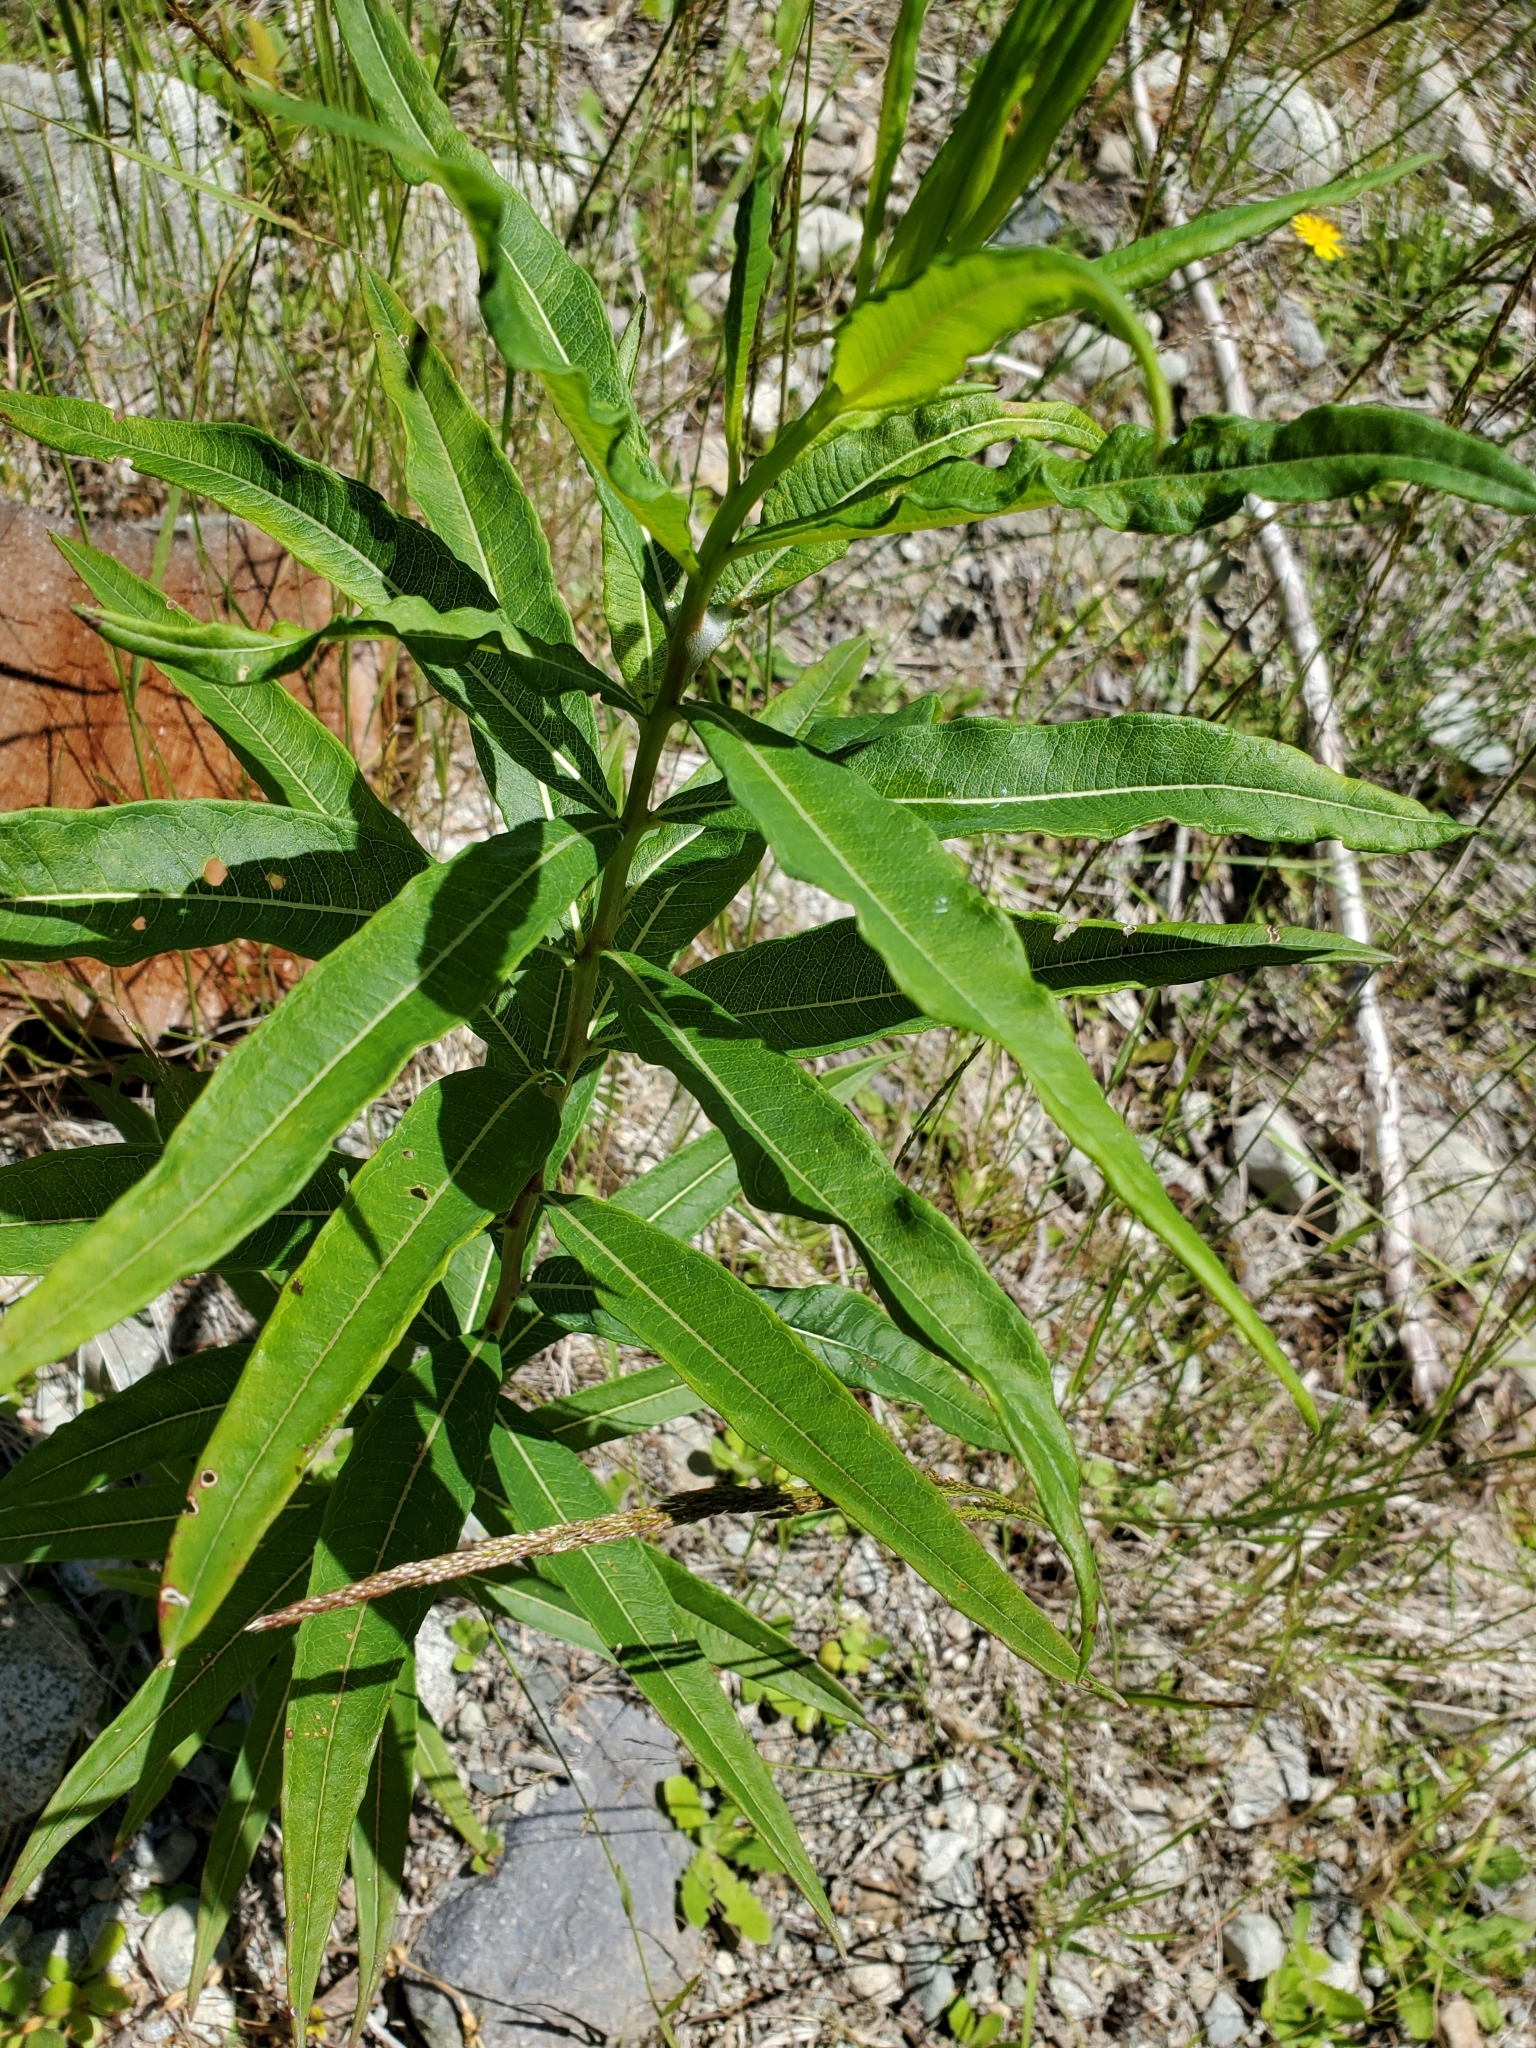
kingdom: Plantae
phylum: Tracheophyta
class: Magnoliopsida
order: Myrtales
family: Onagraceae
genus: Chamaenerion
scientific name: Chamaenerion angustifolium
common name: Fireweed
